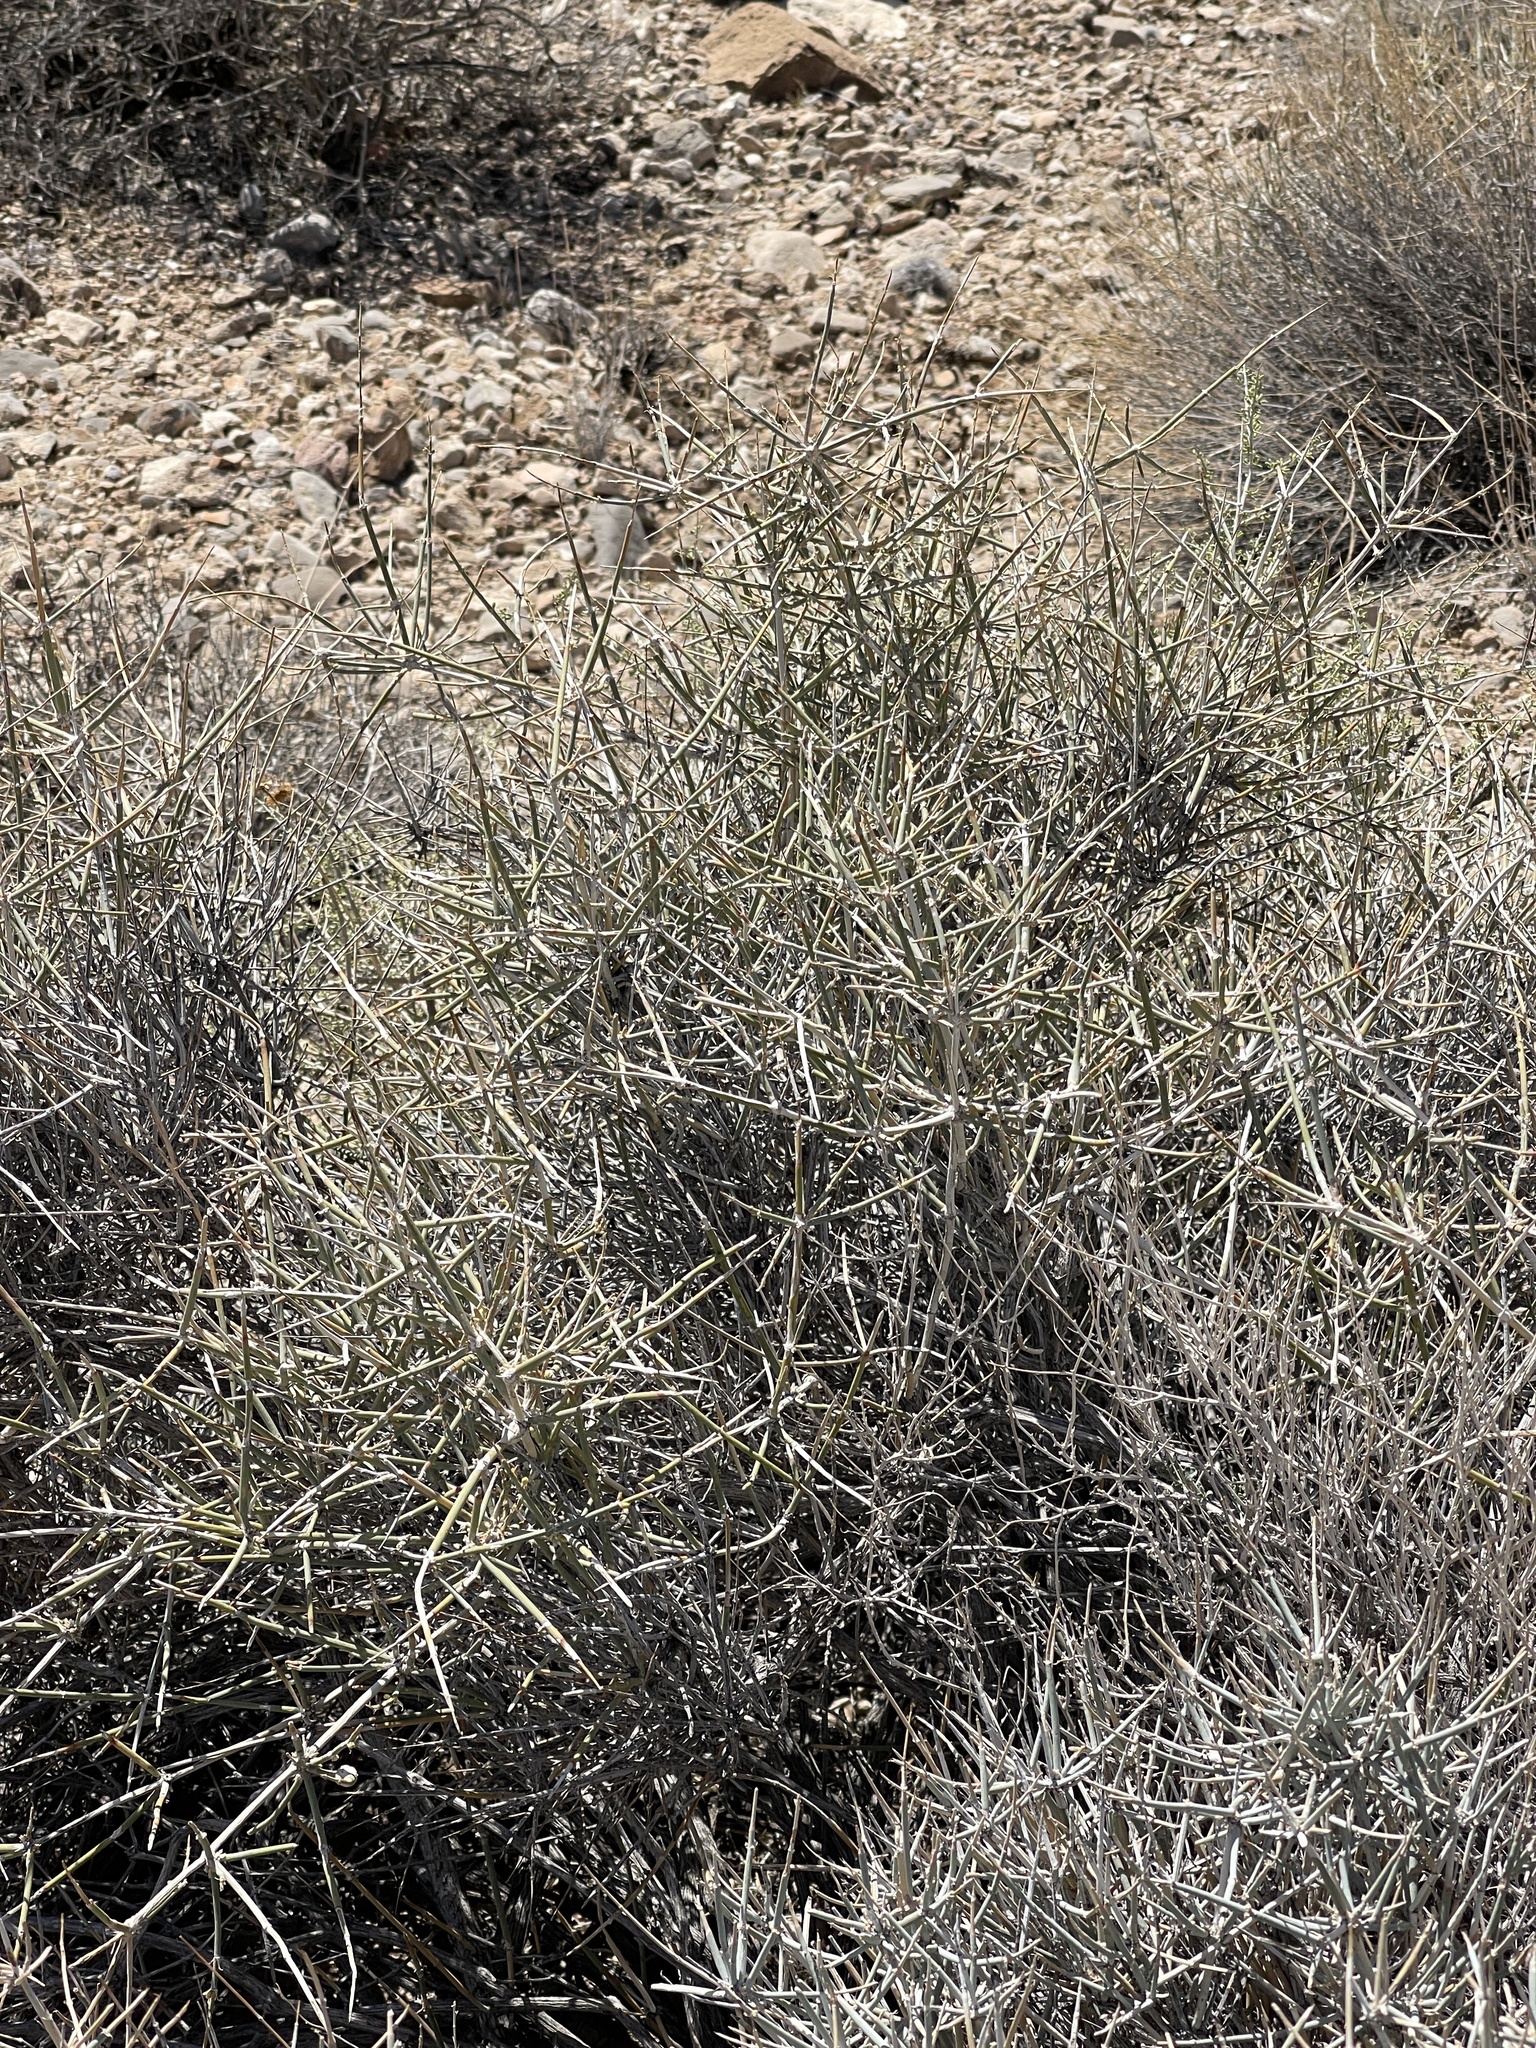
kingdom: Plantae
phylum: Tracheophyta
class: Gnetopsida
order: Ephedrales
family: Ephedraceae
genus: Ephedra
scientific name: Ephedra nevadensis
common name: Gray ephedra
